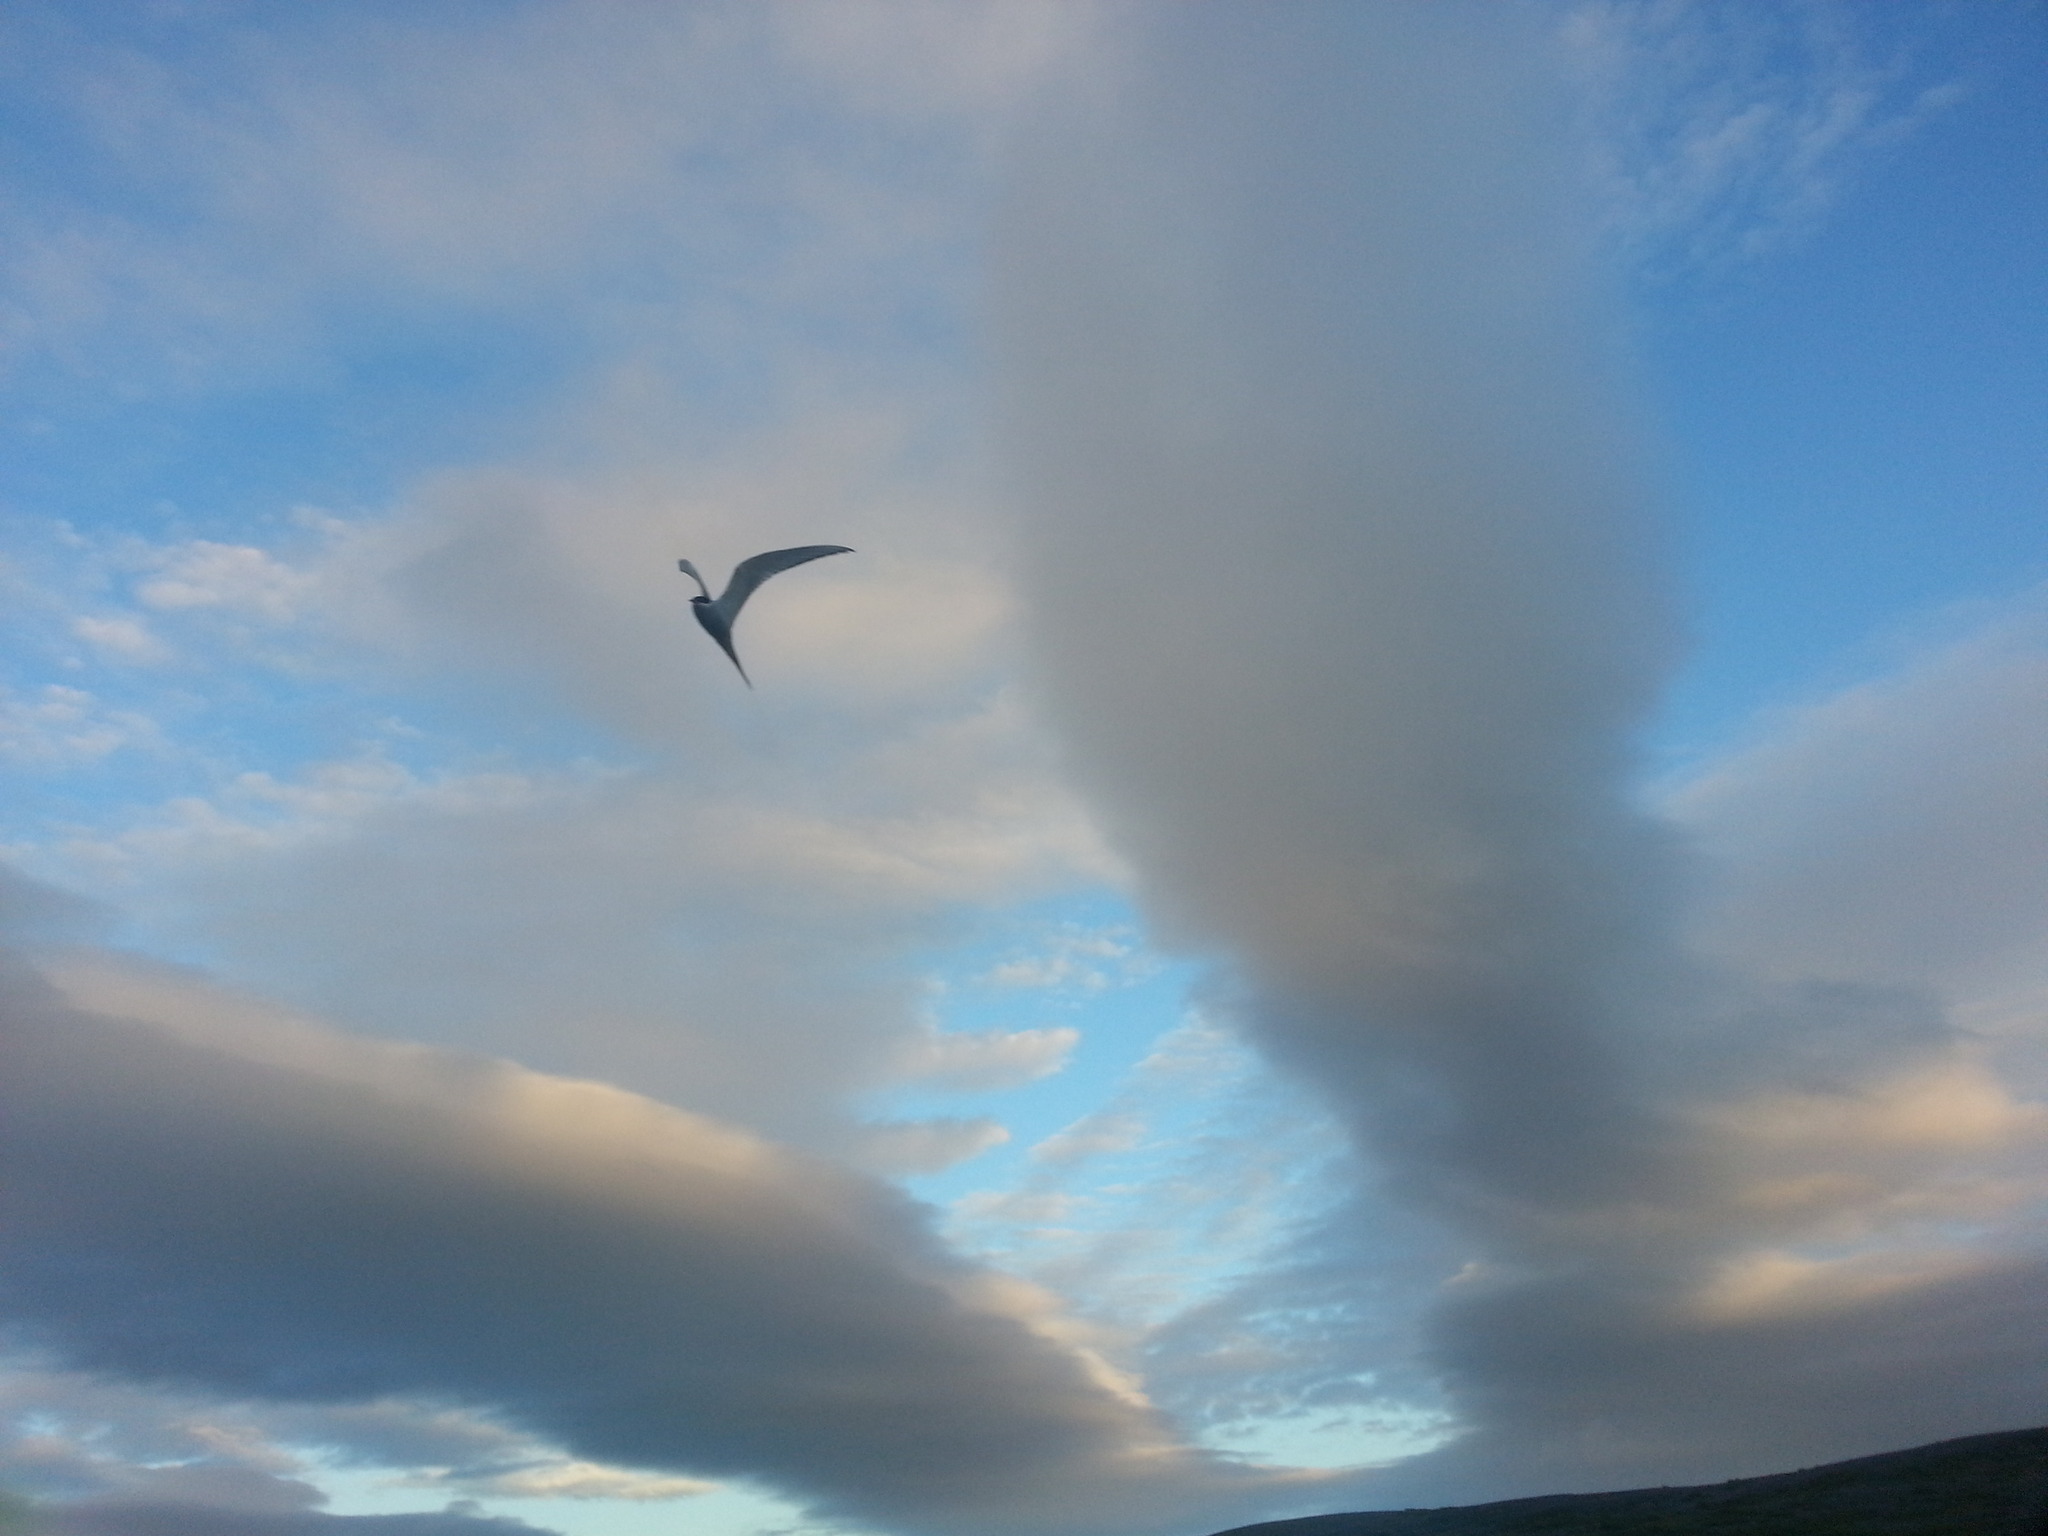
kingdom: Animalia
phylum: Chordata
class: Aves
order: Charadriiformes
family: Laridae
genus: Sterna
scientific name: Sterna paradisaea
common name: Arctic tern
